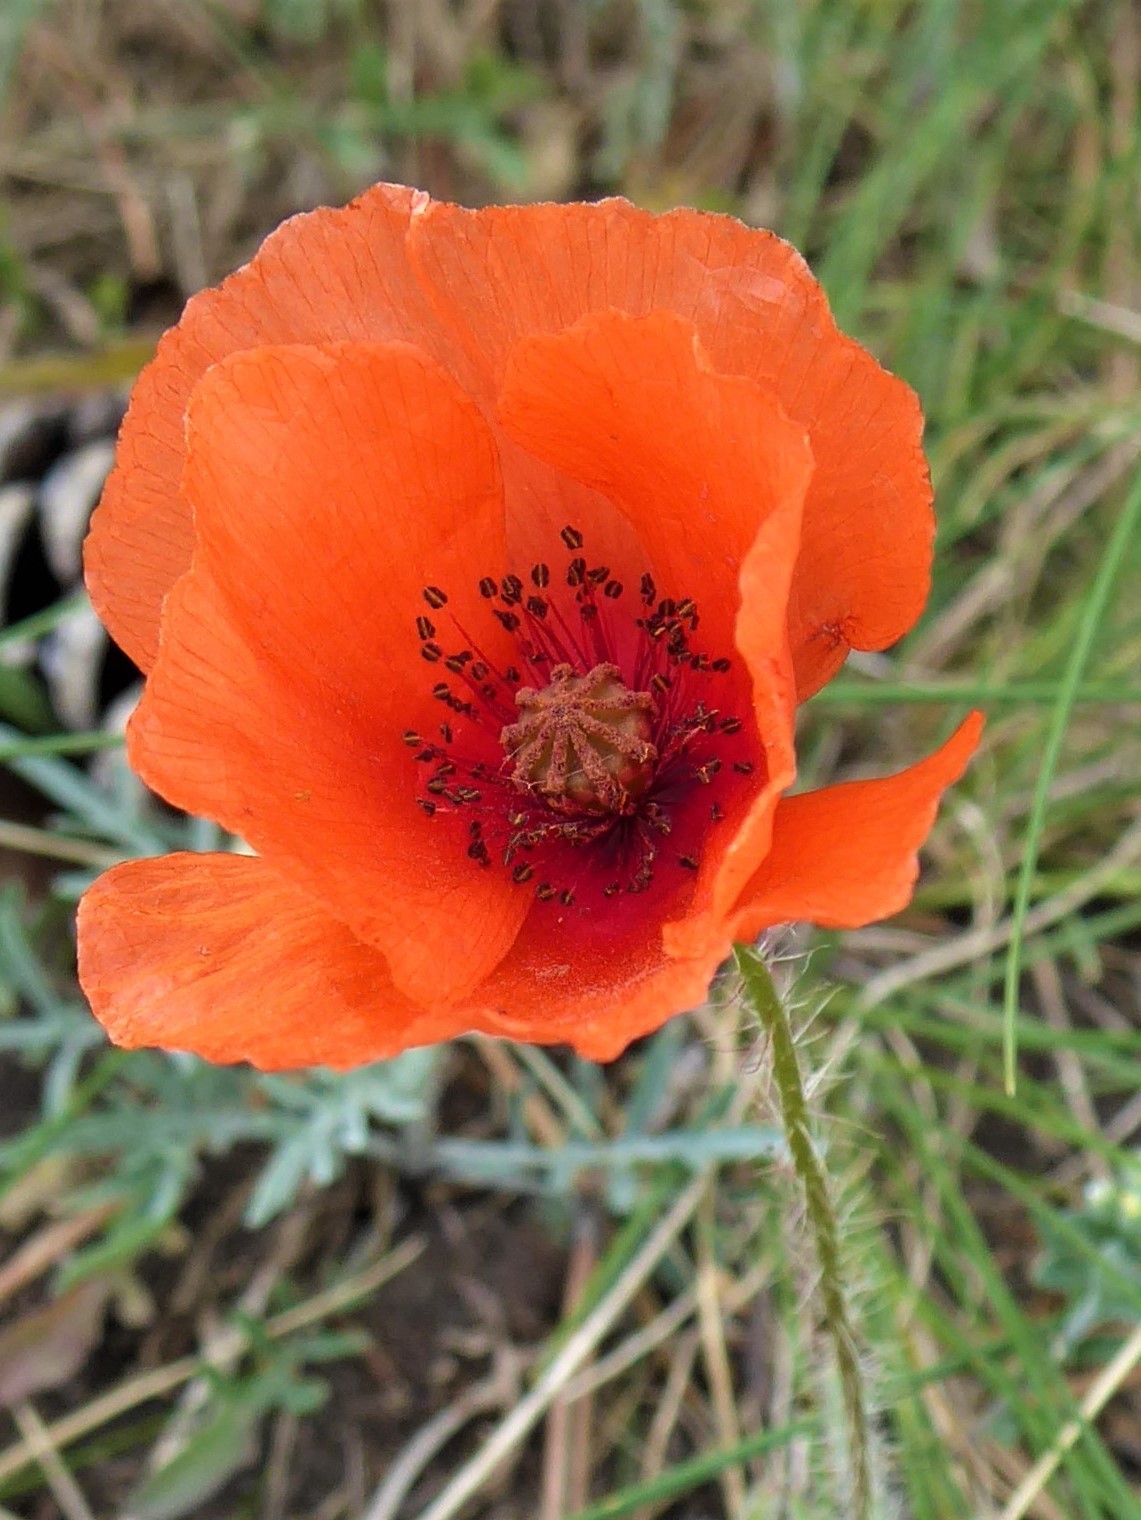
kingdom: Plantae
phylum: Tracheophyta
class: Magnoliopsida
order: Ranunculales
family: Papaveraceae
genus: Papaver
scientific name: Papaver rhoeas
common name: Corn poppy
